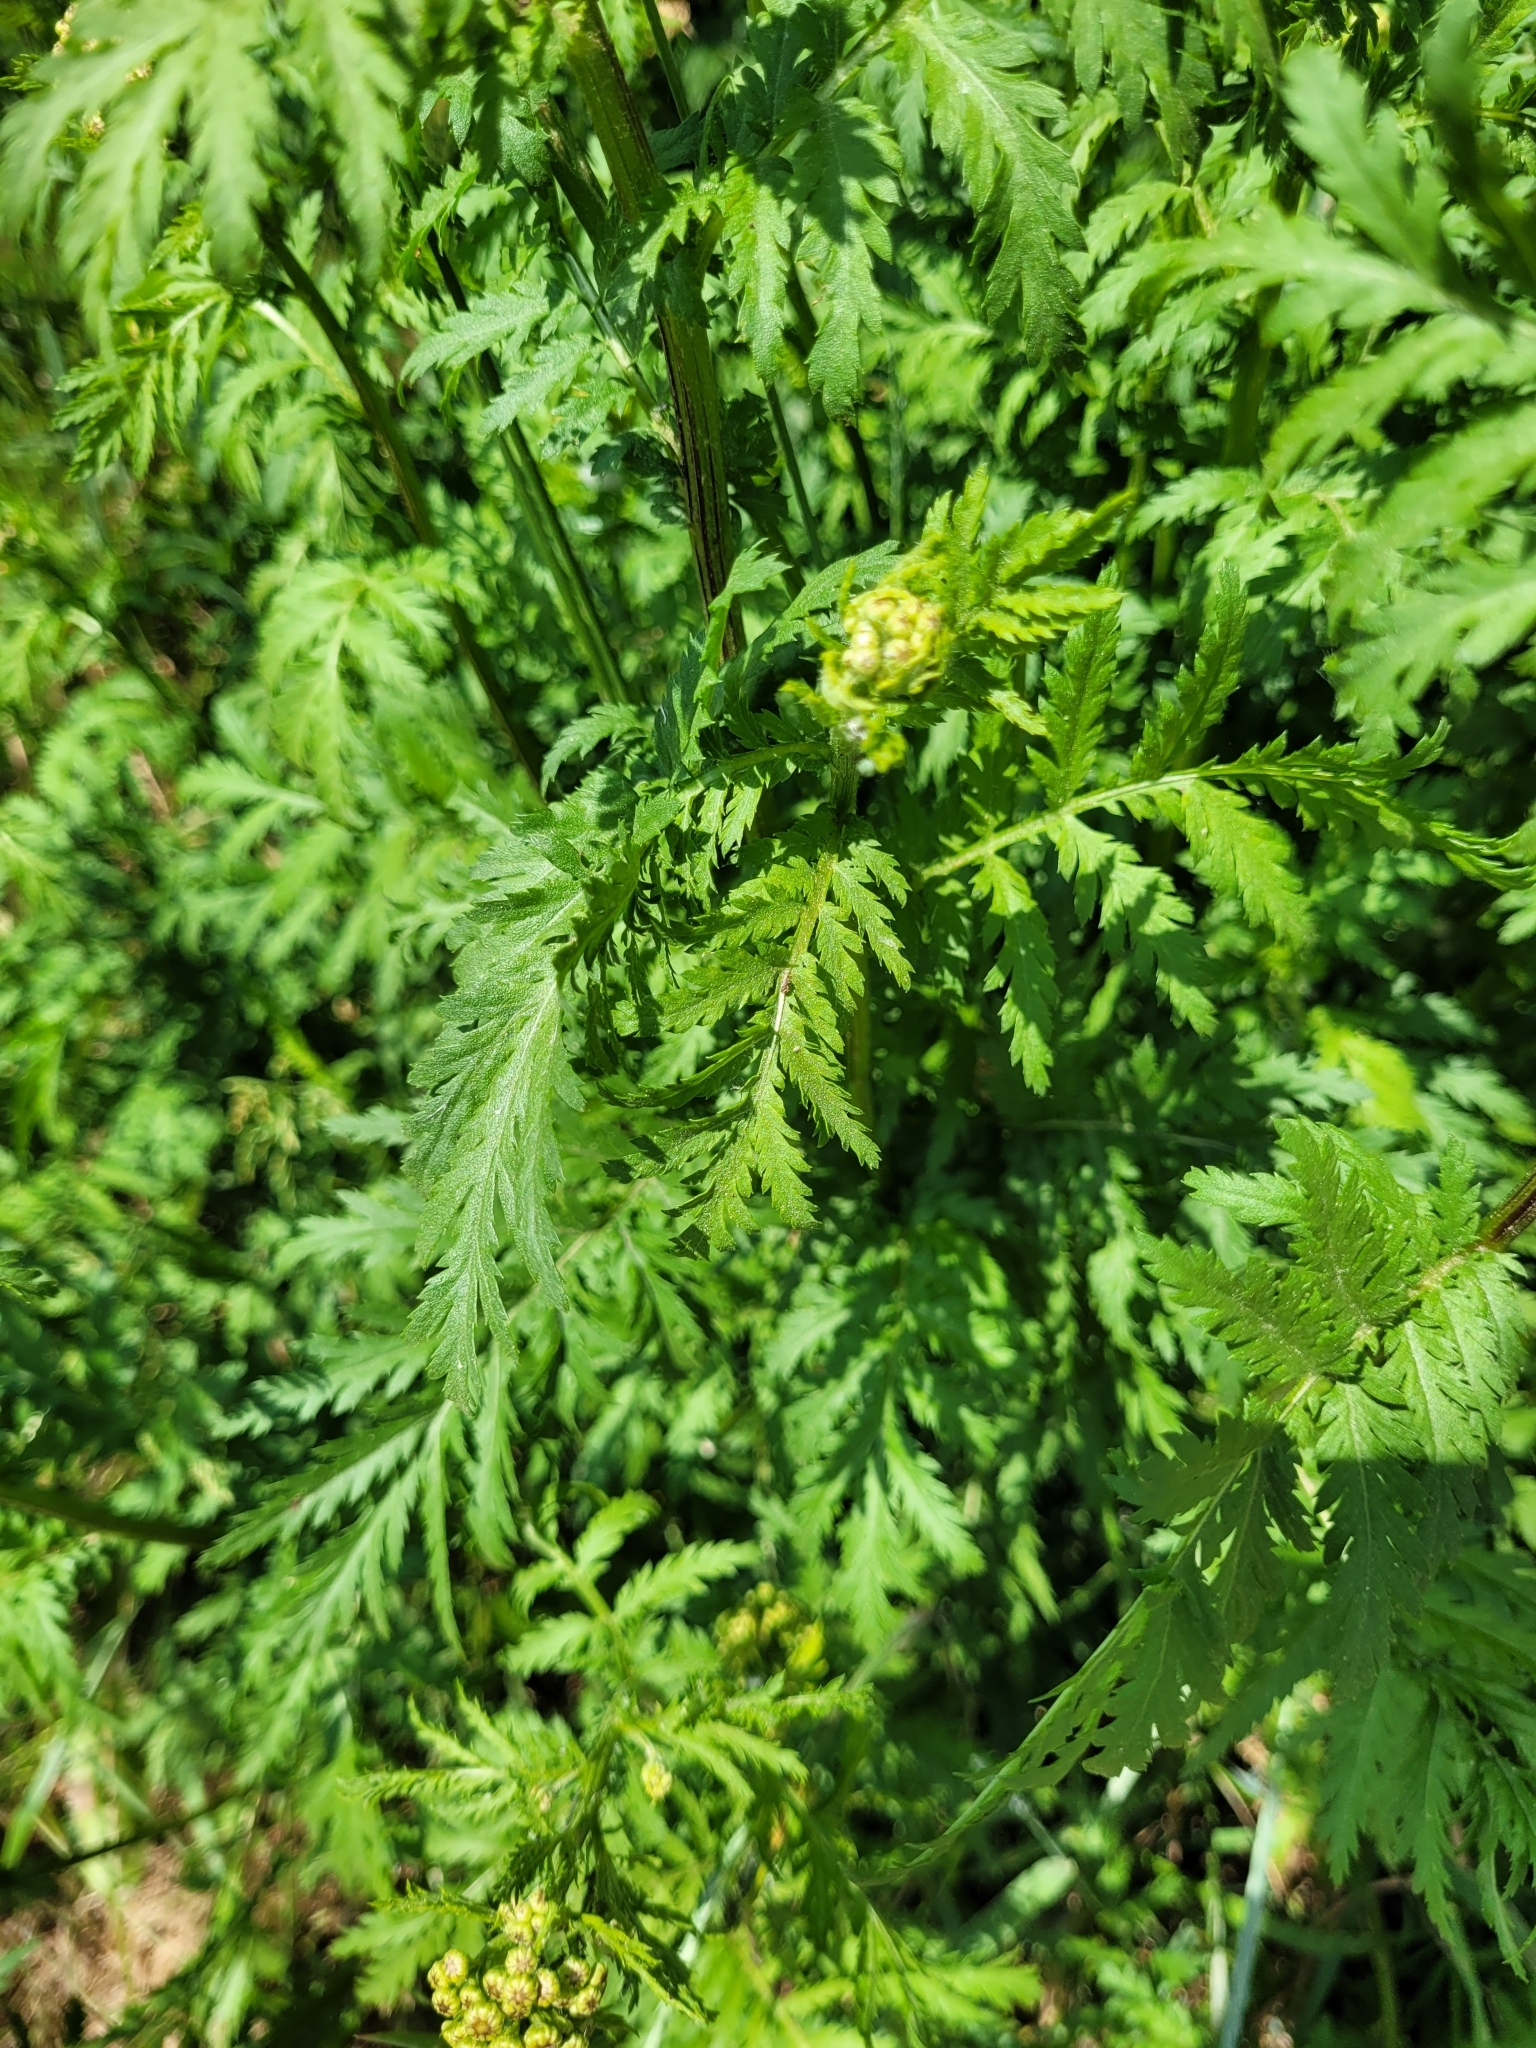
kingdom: Plantae
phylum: Tracheophyta
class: Magnoliopsida
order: Asterales
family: Asteraceae
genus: Tanacetum
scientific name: Tanacetum vulgare
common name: Common tansy
